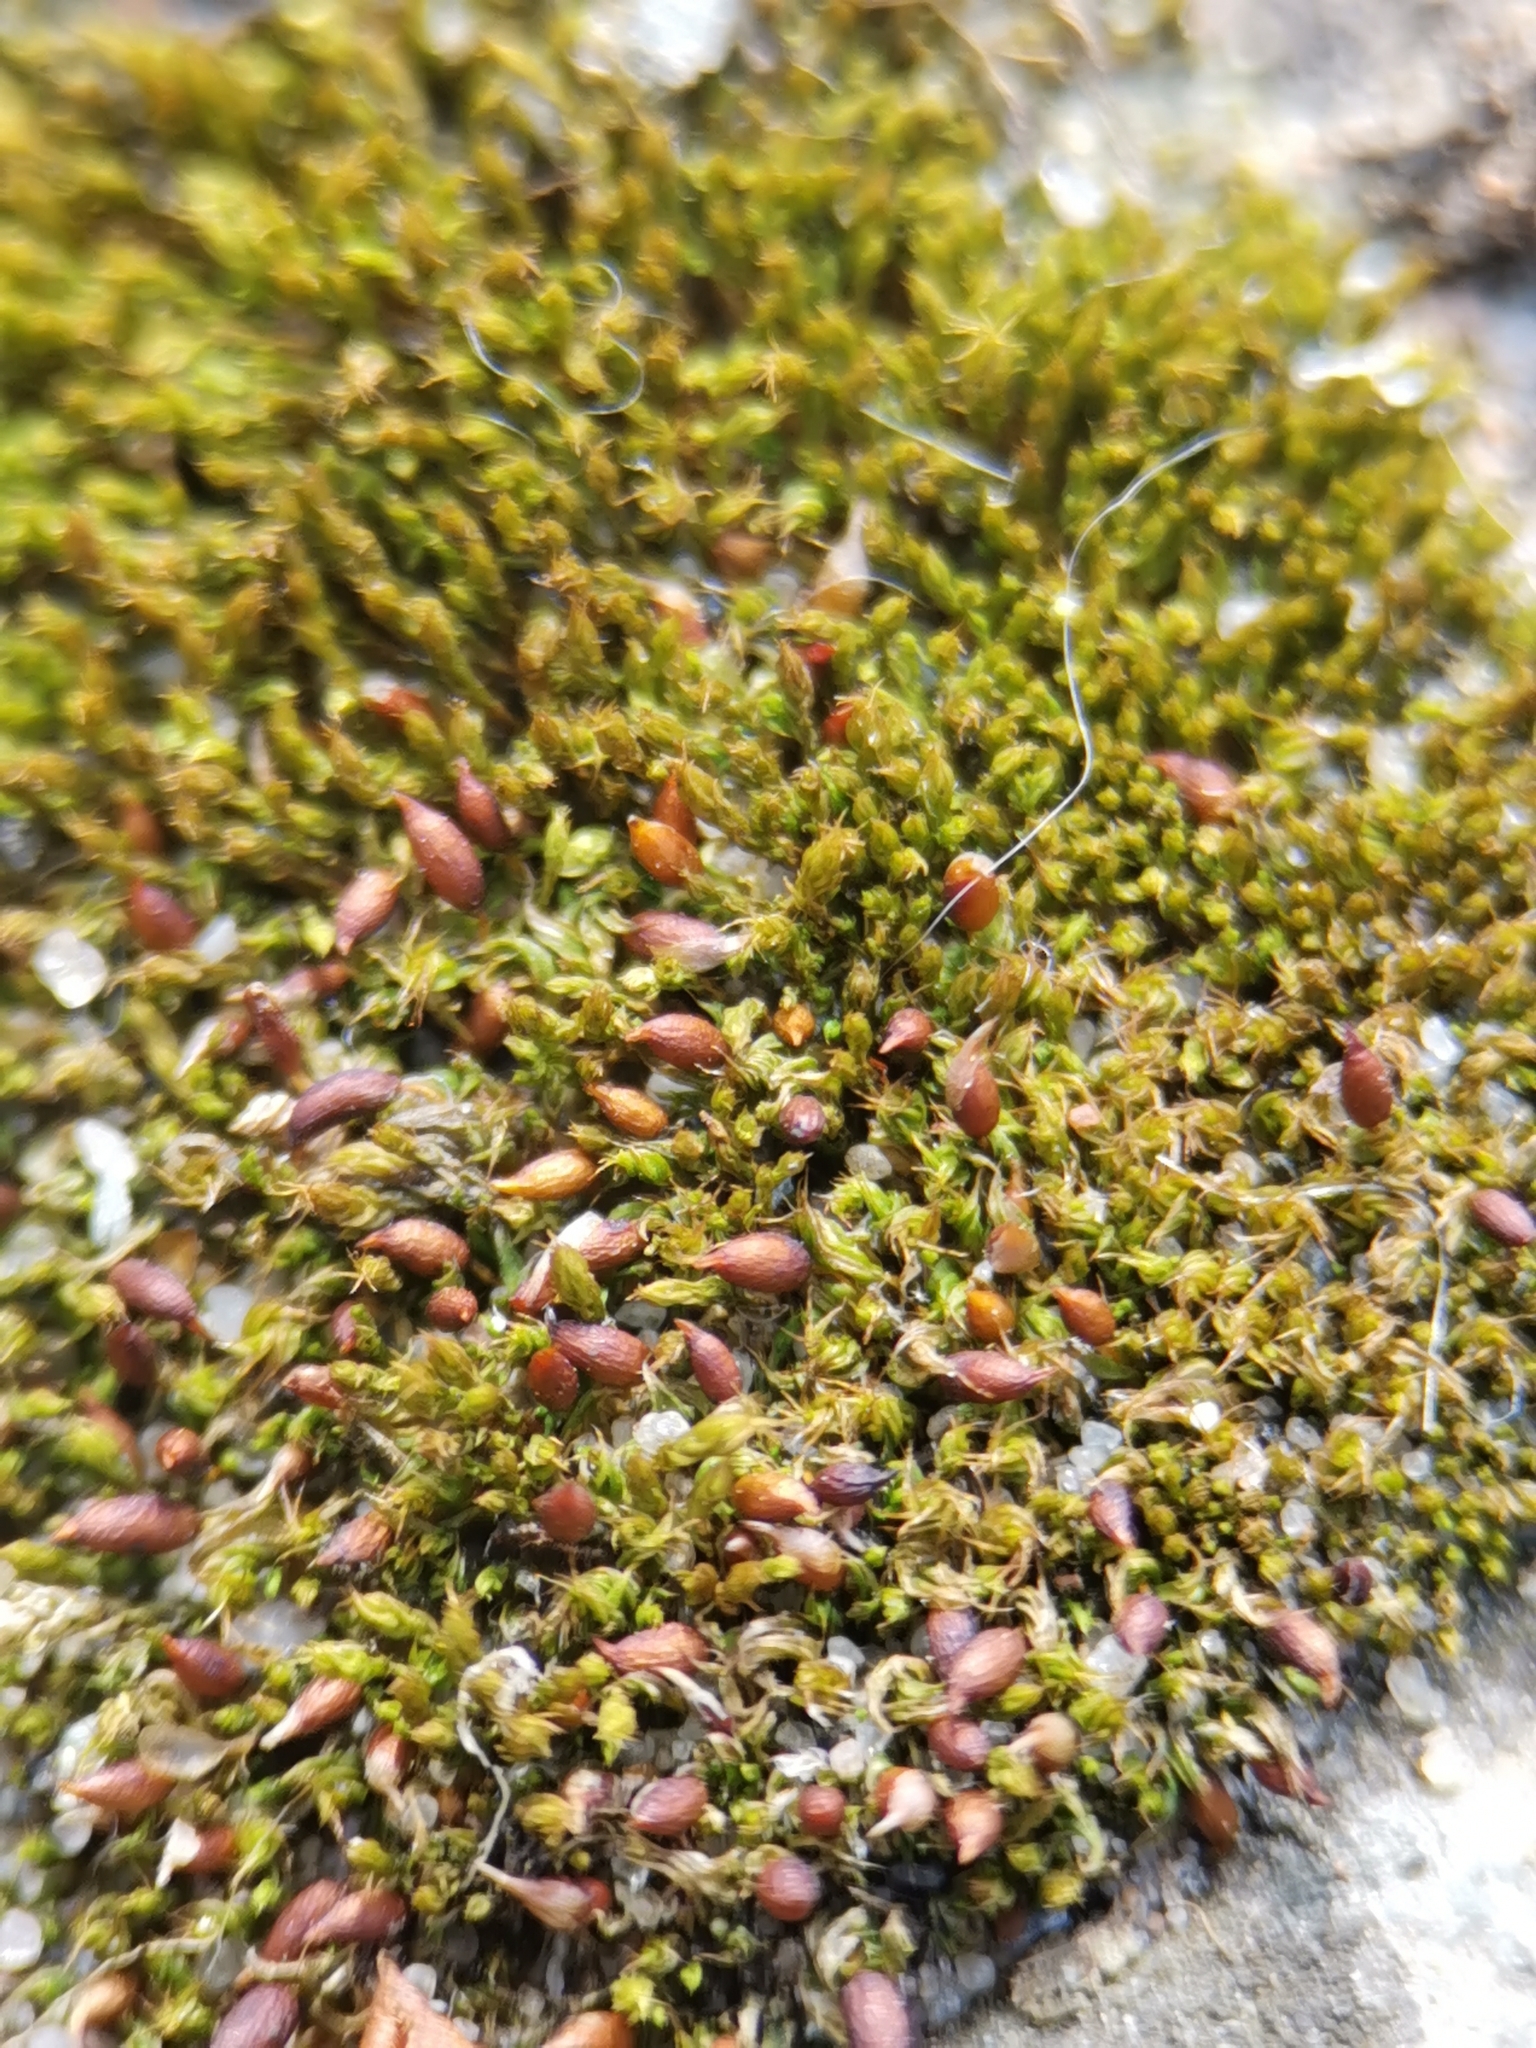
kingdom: Plantae
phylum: Bryophyta
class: Bryopsida
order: Pottiales
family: Pottiaceae
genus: Tortula
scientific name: Tortula protobryoides
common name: Tall pottia
